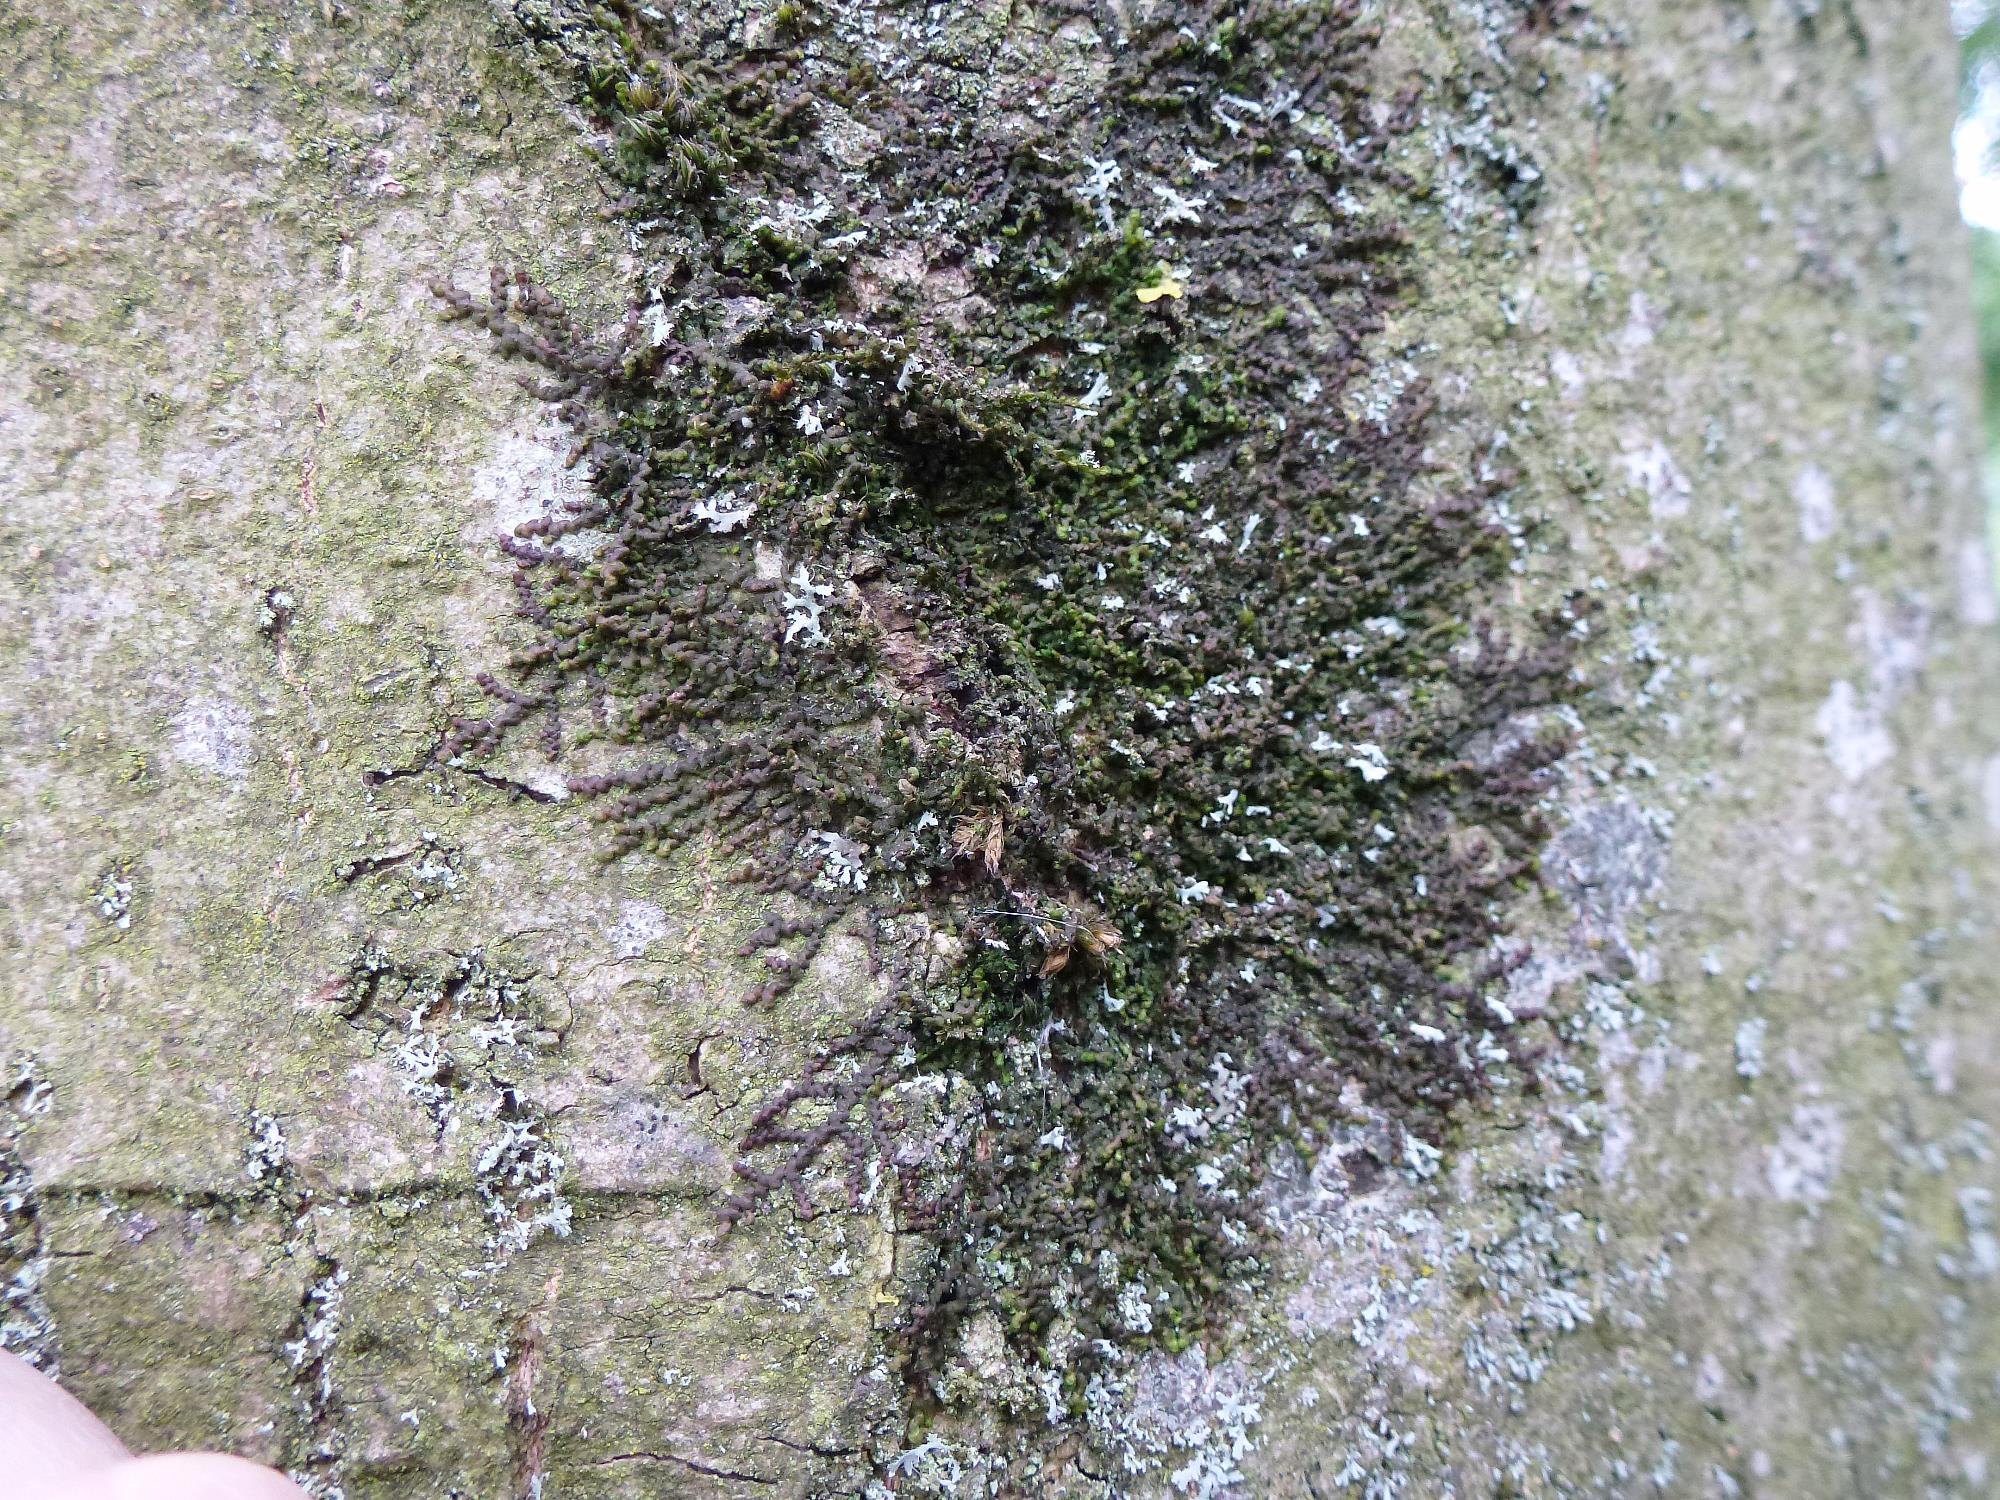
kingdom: Plantae
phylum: Marchantiophyta
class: Jungermanniopsida
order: Porellales
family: Frullaniaceae
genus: Frullania
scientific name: Frullania dilatata
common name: Dilated scalewort
